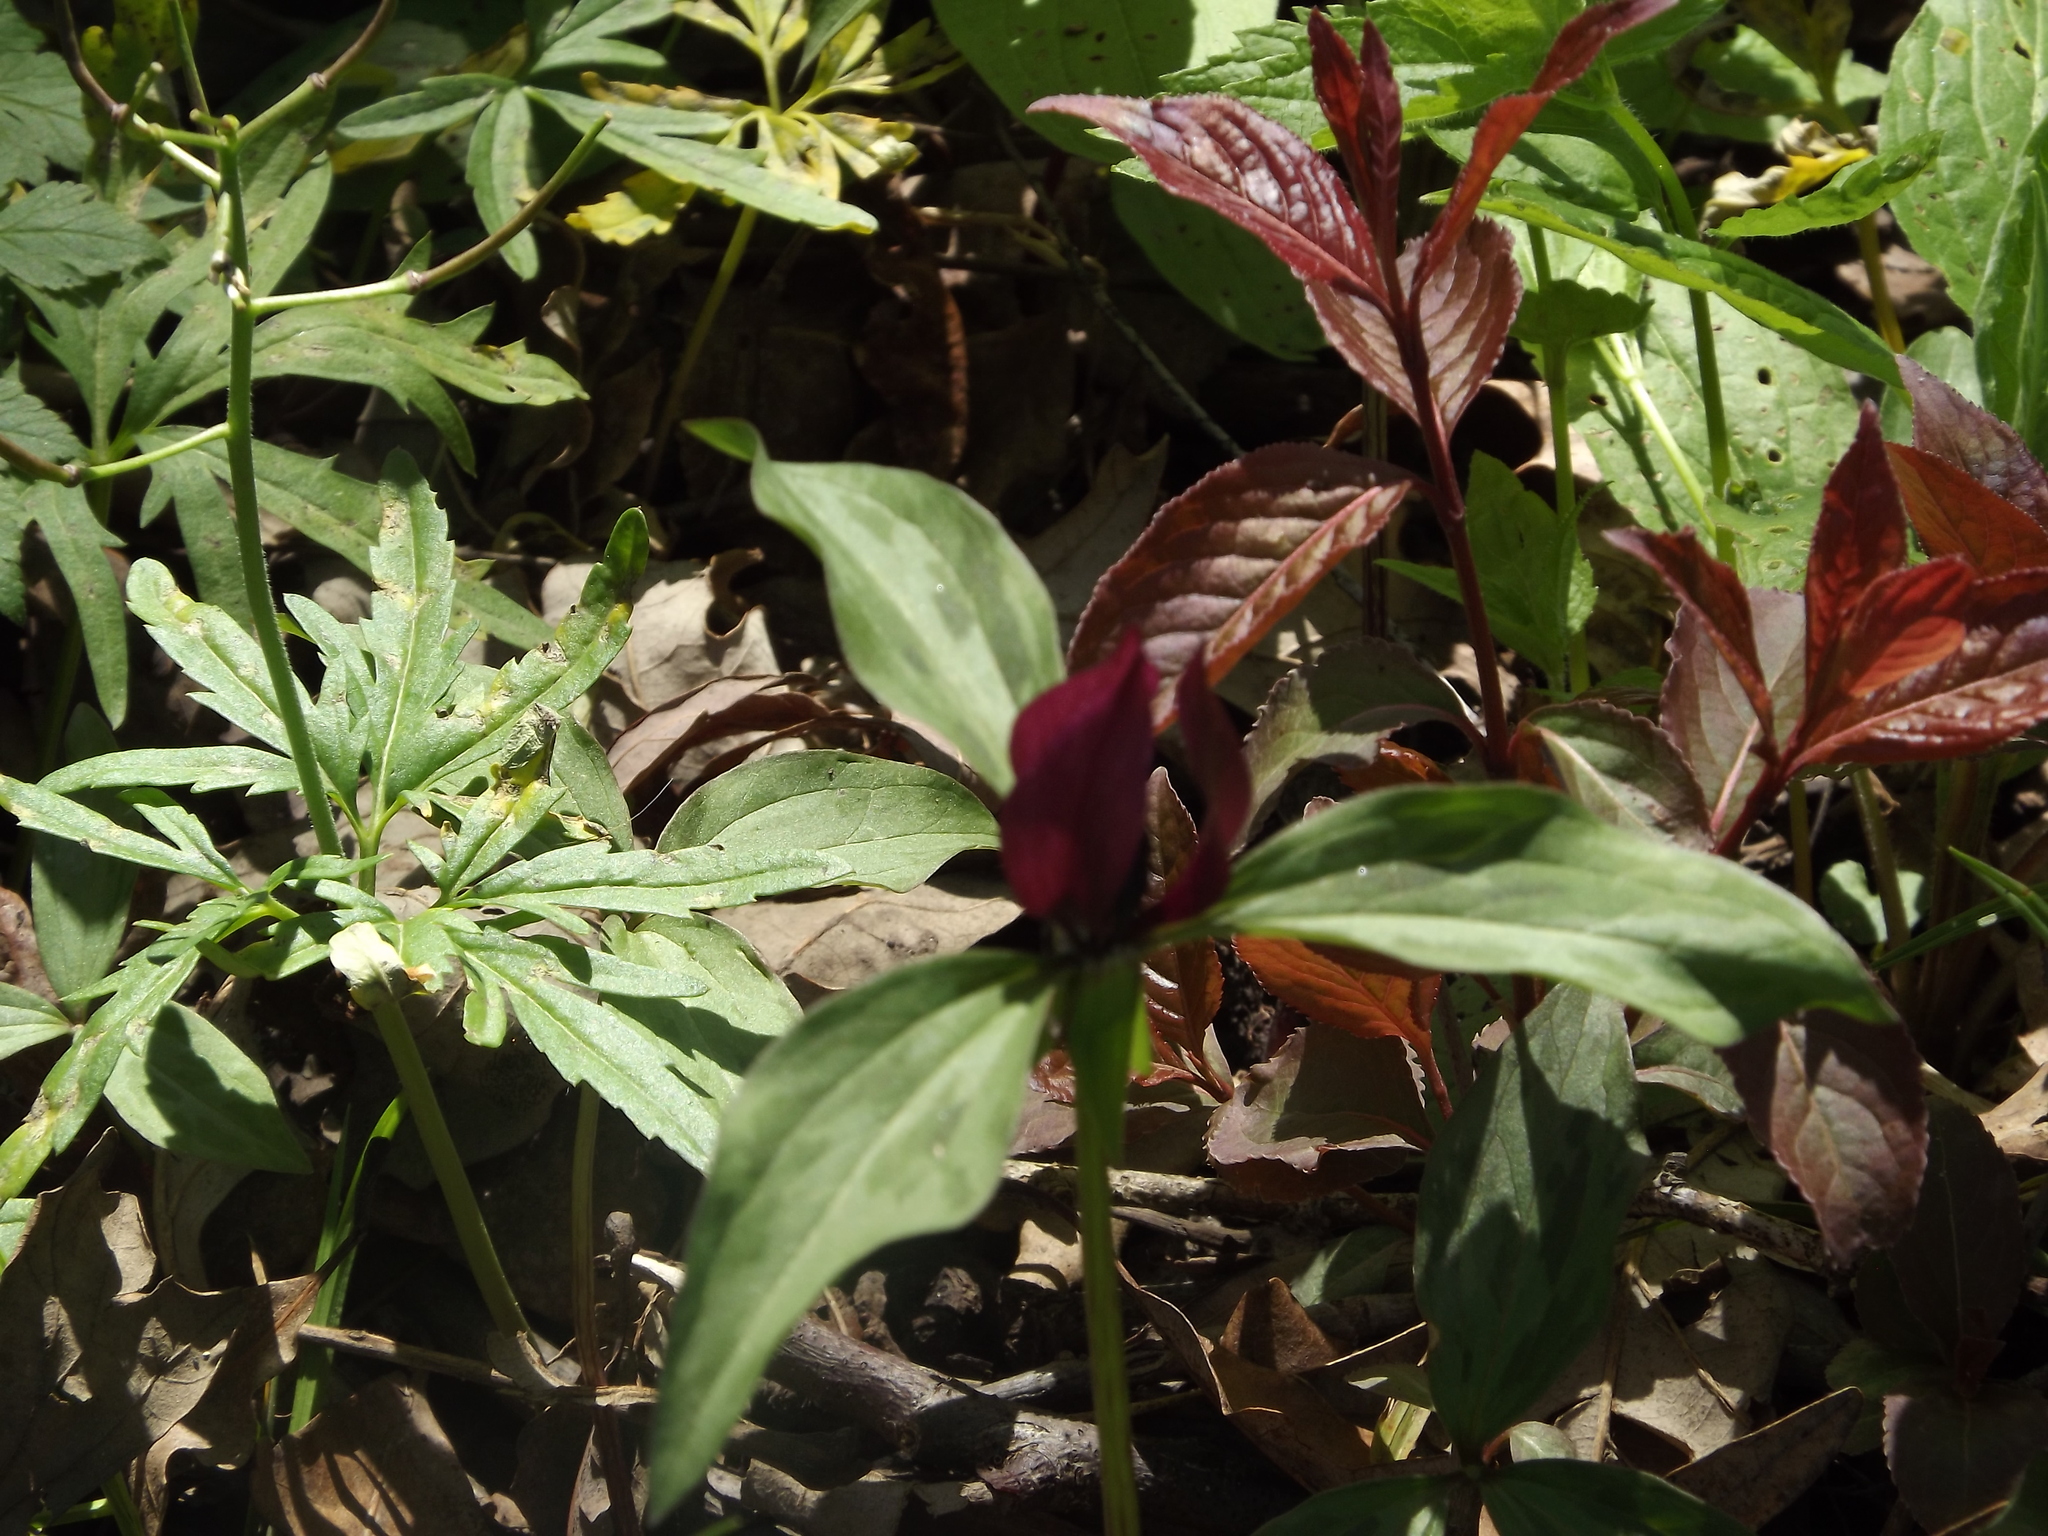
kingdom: Plantae
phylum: Tracheophyta
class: Liliopsida
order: Liliales
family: Melanthiaceae
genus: Trillium
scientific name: Trillium recurvatum
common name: Bloody butcher
